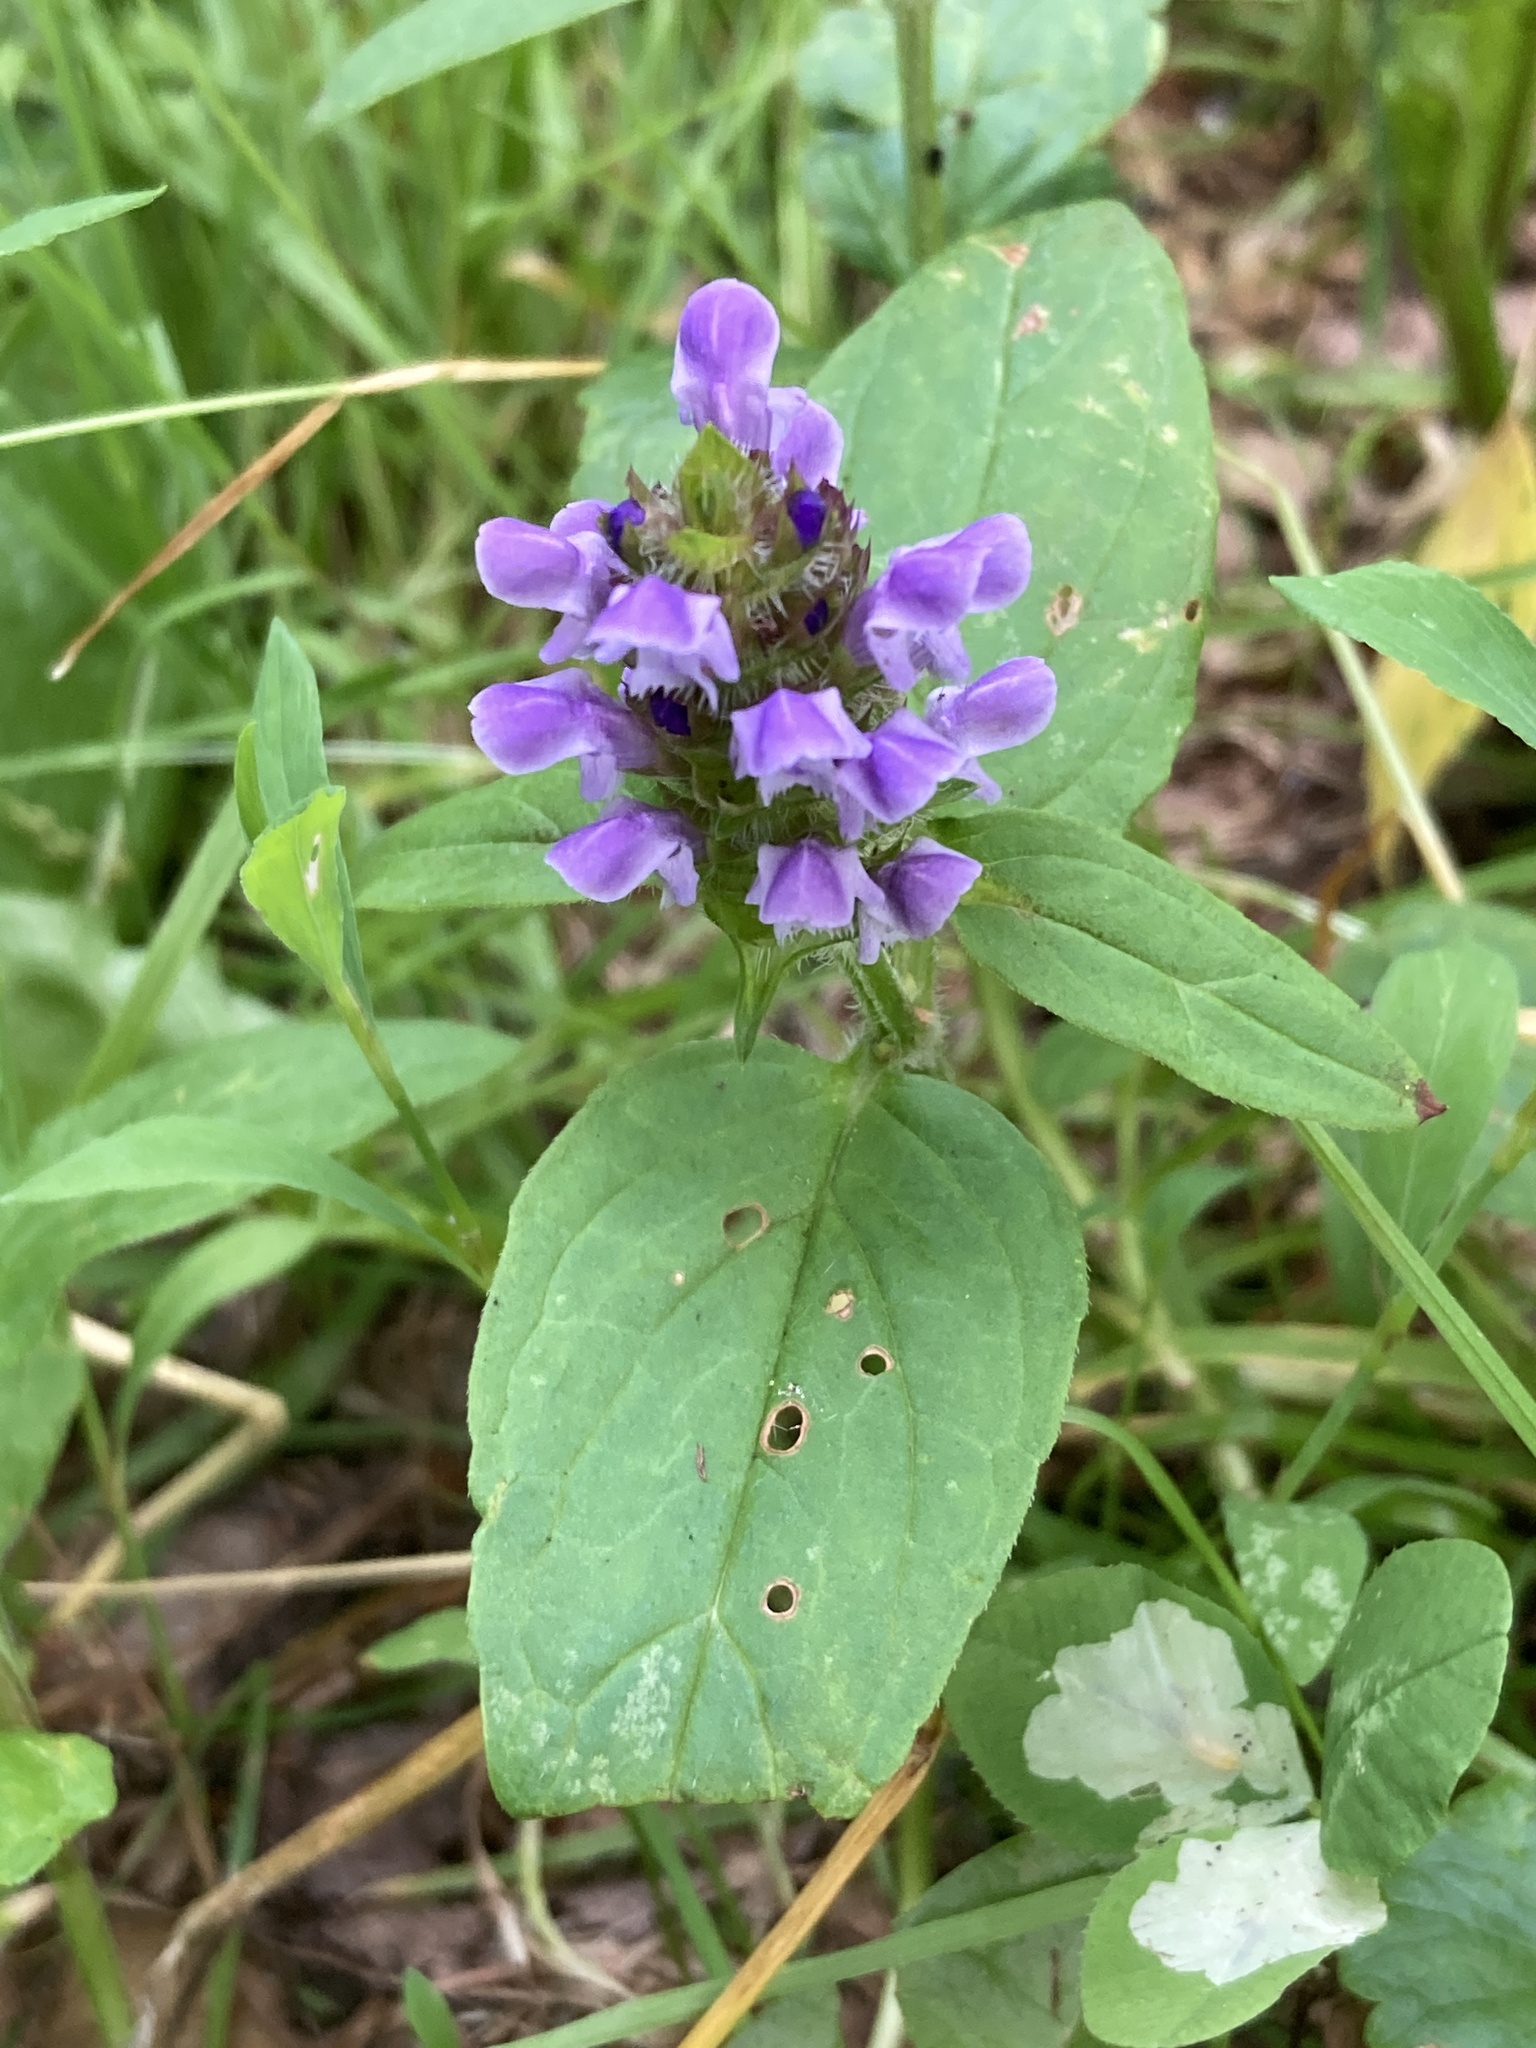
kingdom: Plantae
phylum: Tracheophyta
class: Magnoliopsida
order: Lamiales
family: Lamiaceae
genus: Prunella
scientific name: Prunella vulgaris
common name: Heal-all
